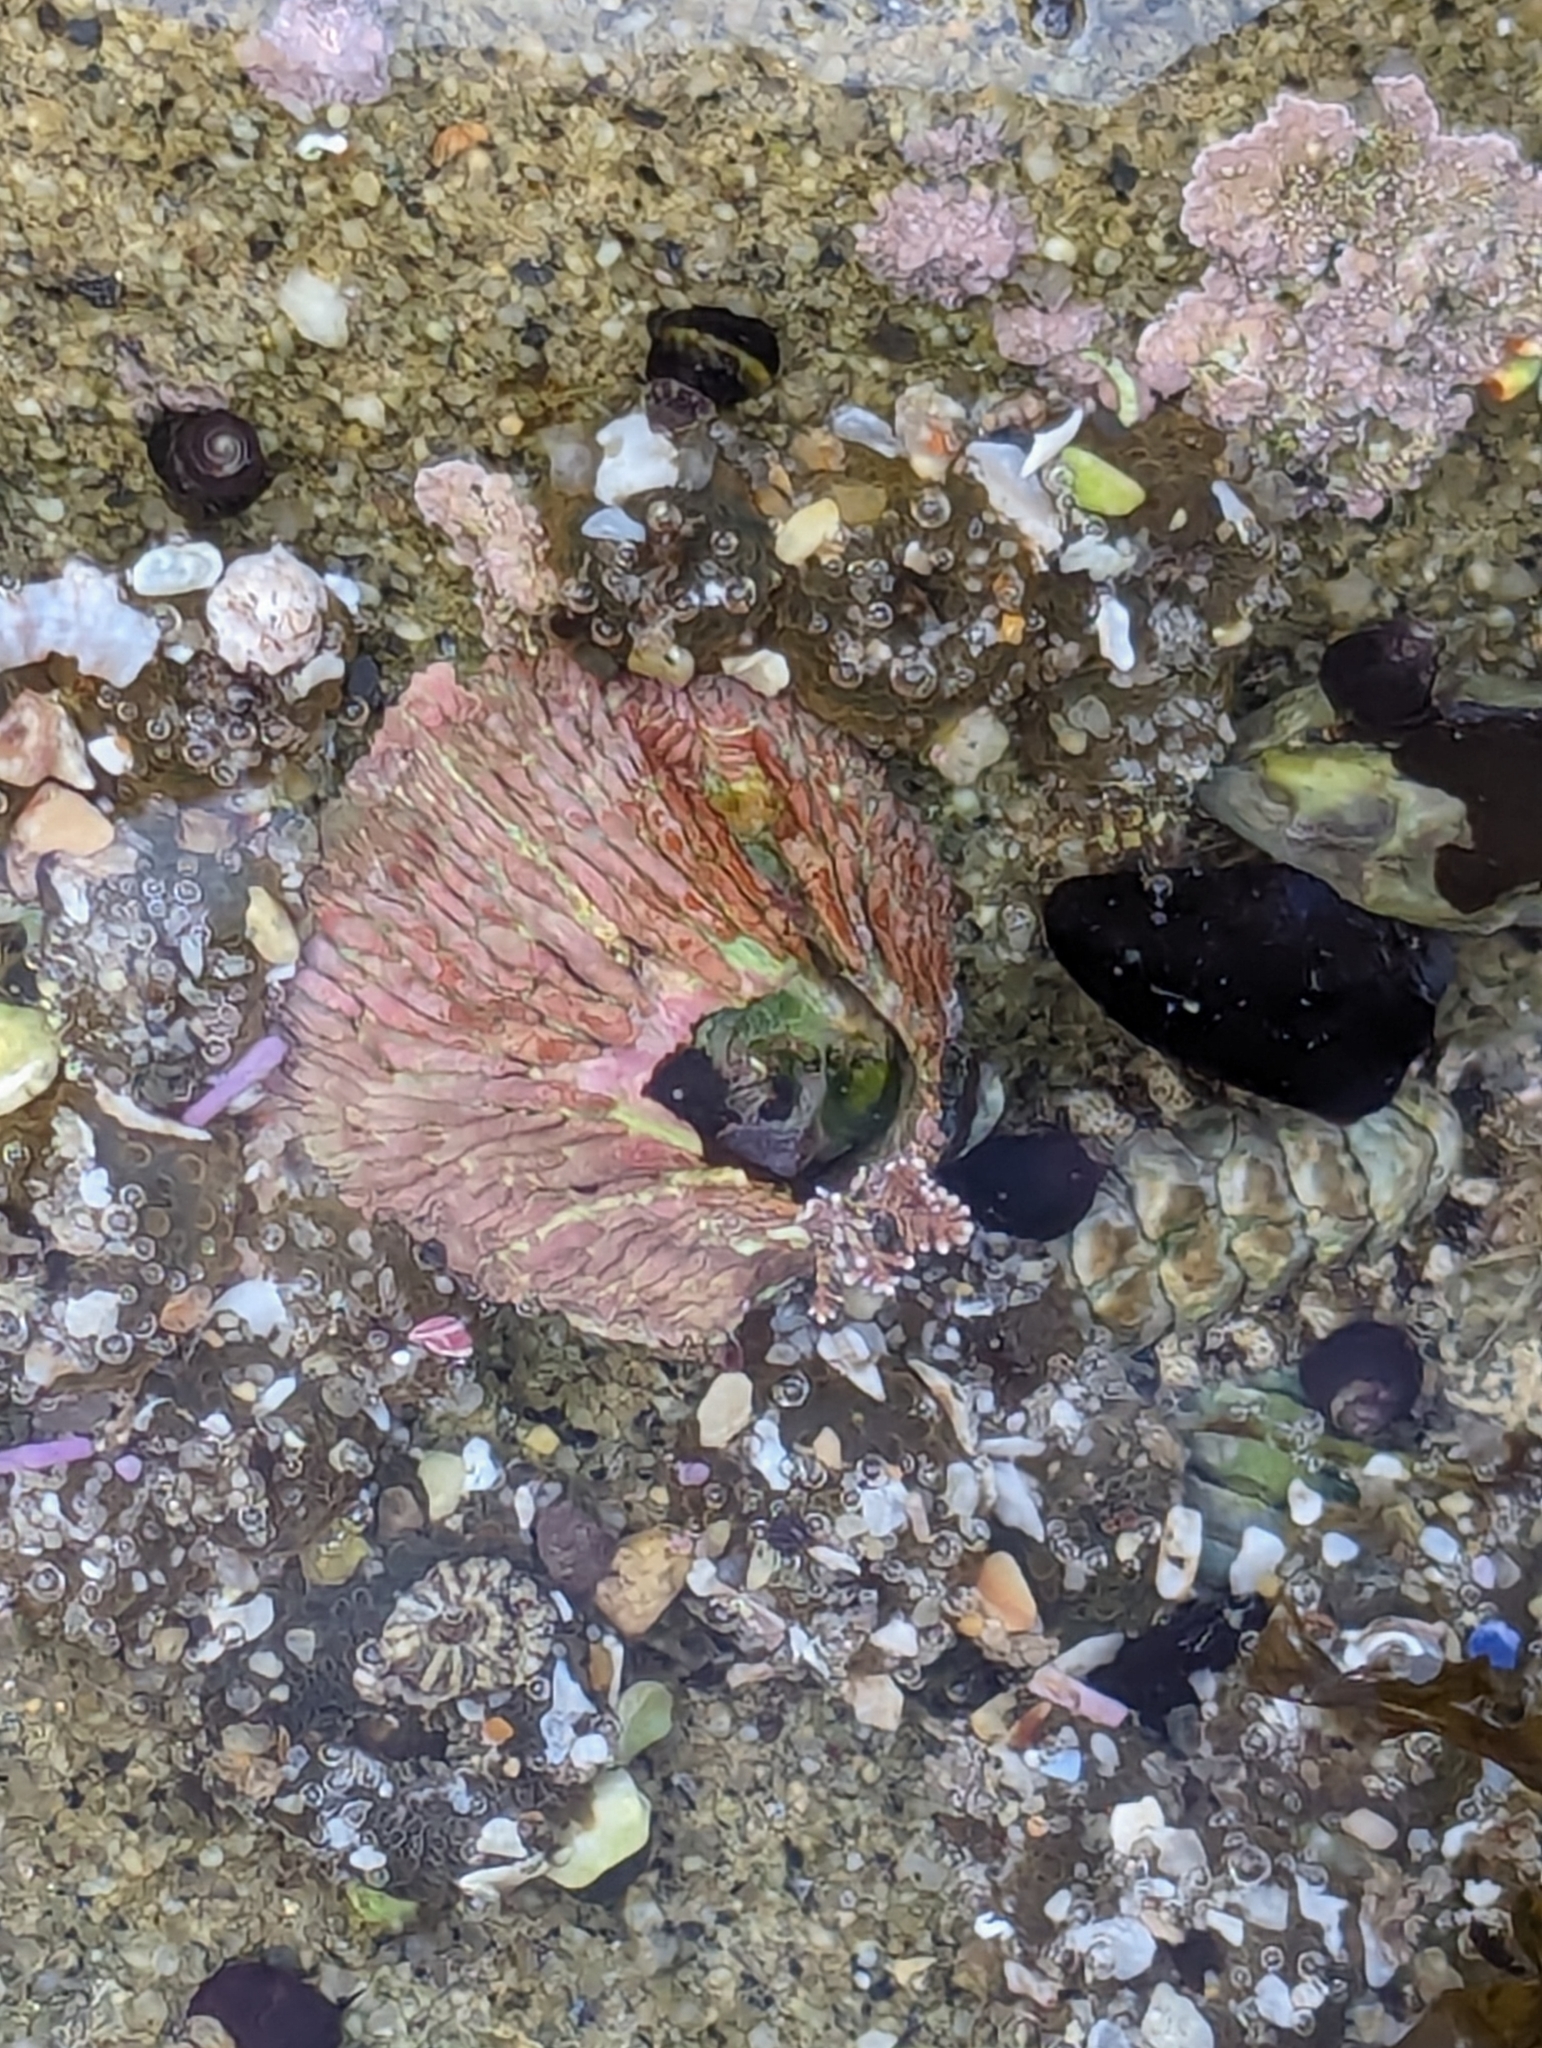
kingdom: Animalia
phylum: Arthropoda
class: Maxillopoda
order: Sessilia
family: Tetraclitidae
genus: Tetraclita
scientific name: Tetraclita rubescens
